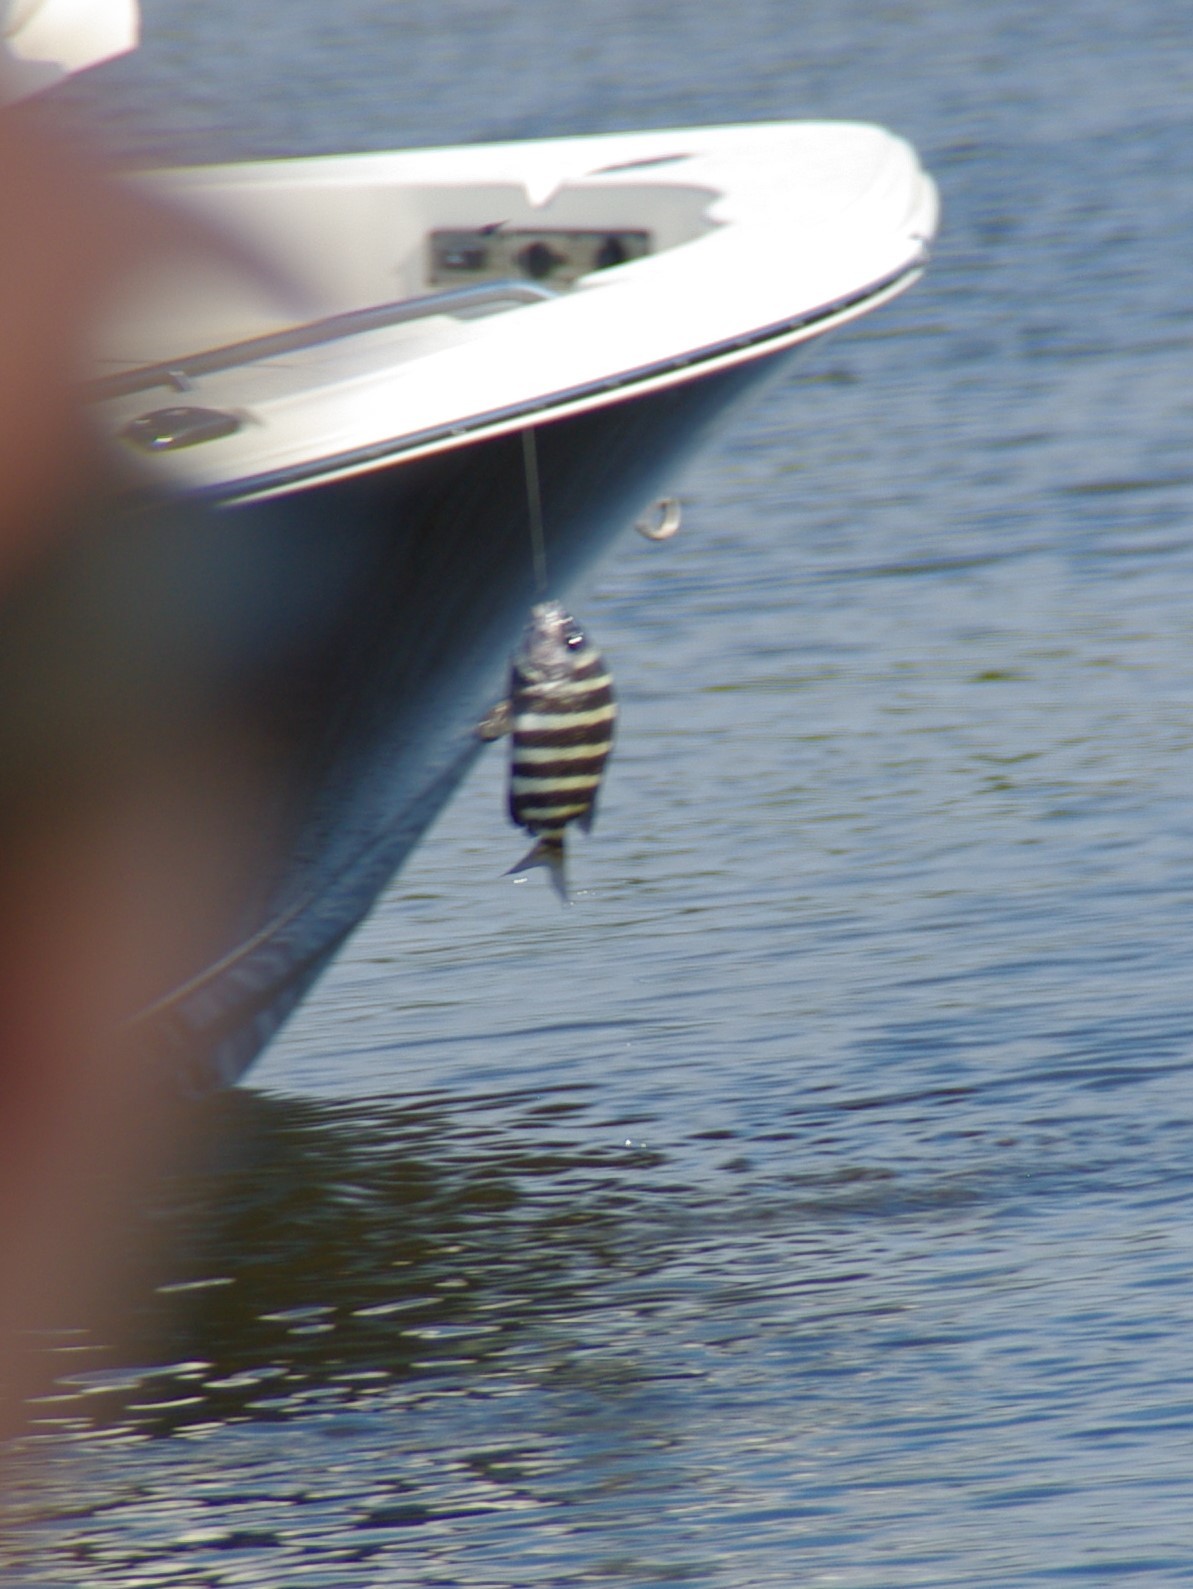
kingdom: Animalia
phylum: Chordata
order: Perciformes
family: Sparidae
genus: Archosargus
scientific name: Archosargus probatocephalus
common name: Sheepshead
